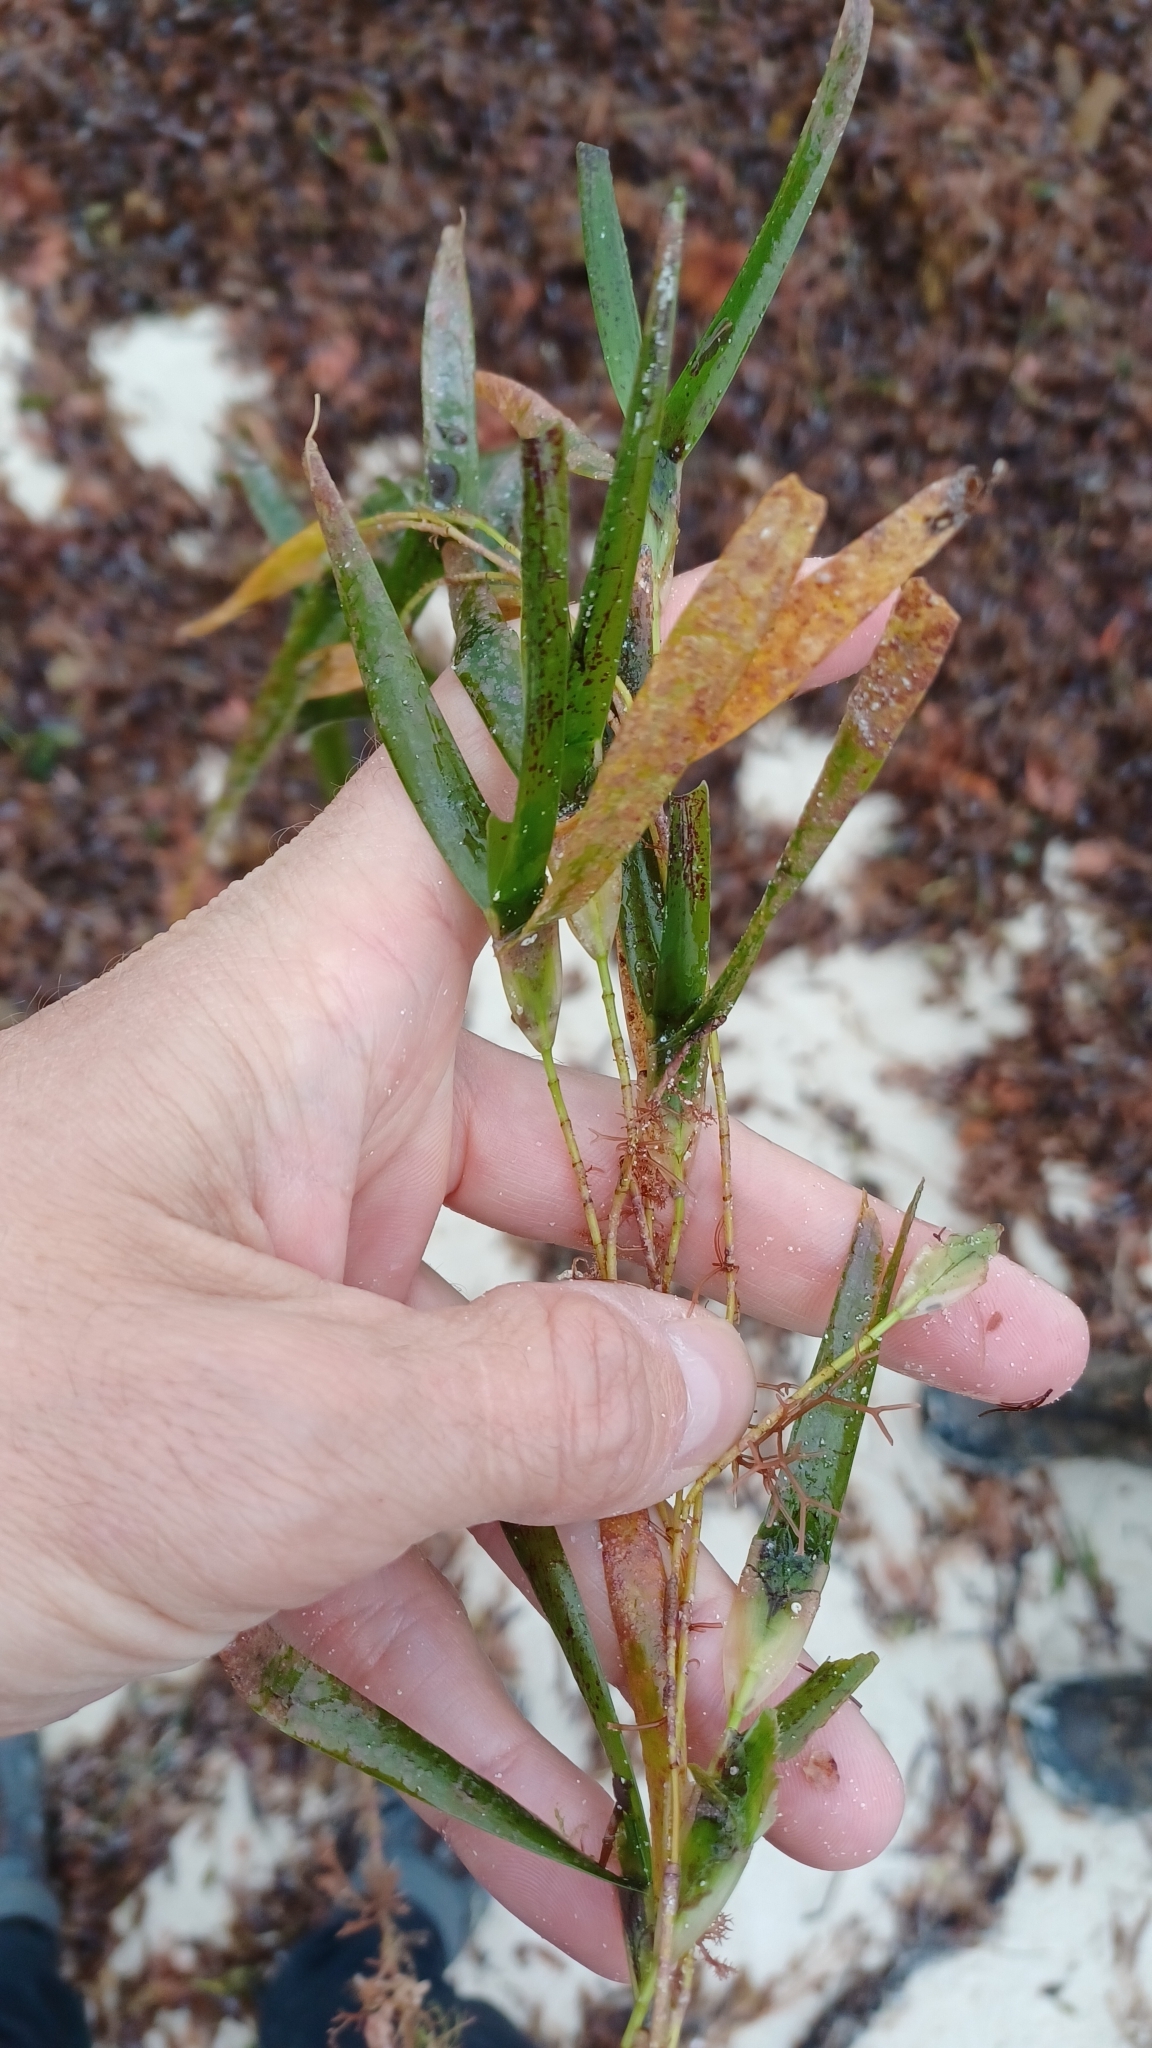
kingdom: Plantae
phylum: Tracheophyta
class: Liliopsida
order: Alismatales
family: Cymodoceaceae
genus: Amphibolis
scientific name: Amphibolis griffithii
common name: Species code: ag
